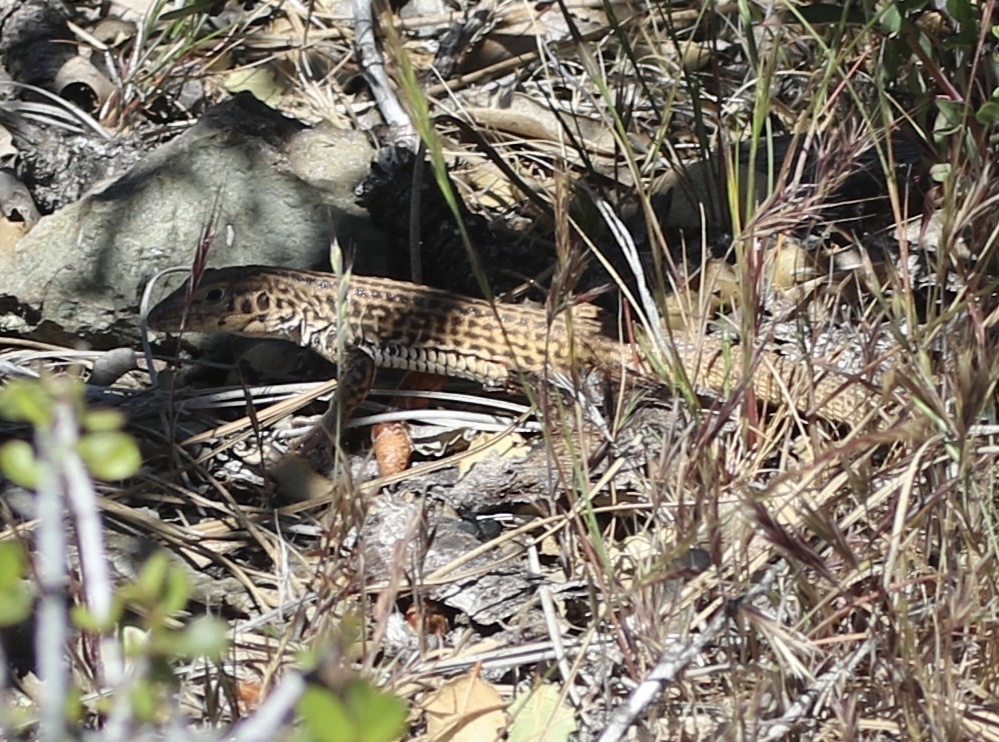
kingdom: Animalia
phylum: Chordata
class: Squamata
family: Teiidae
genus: Aspidoscelis
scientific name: Aspidoscelis tigris
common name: Tiger whiptail
